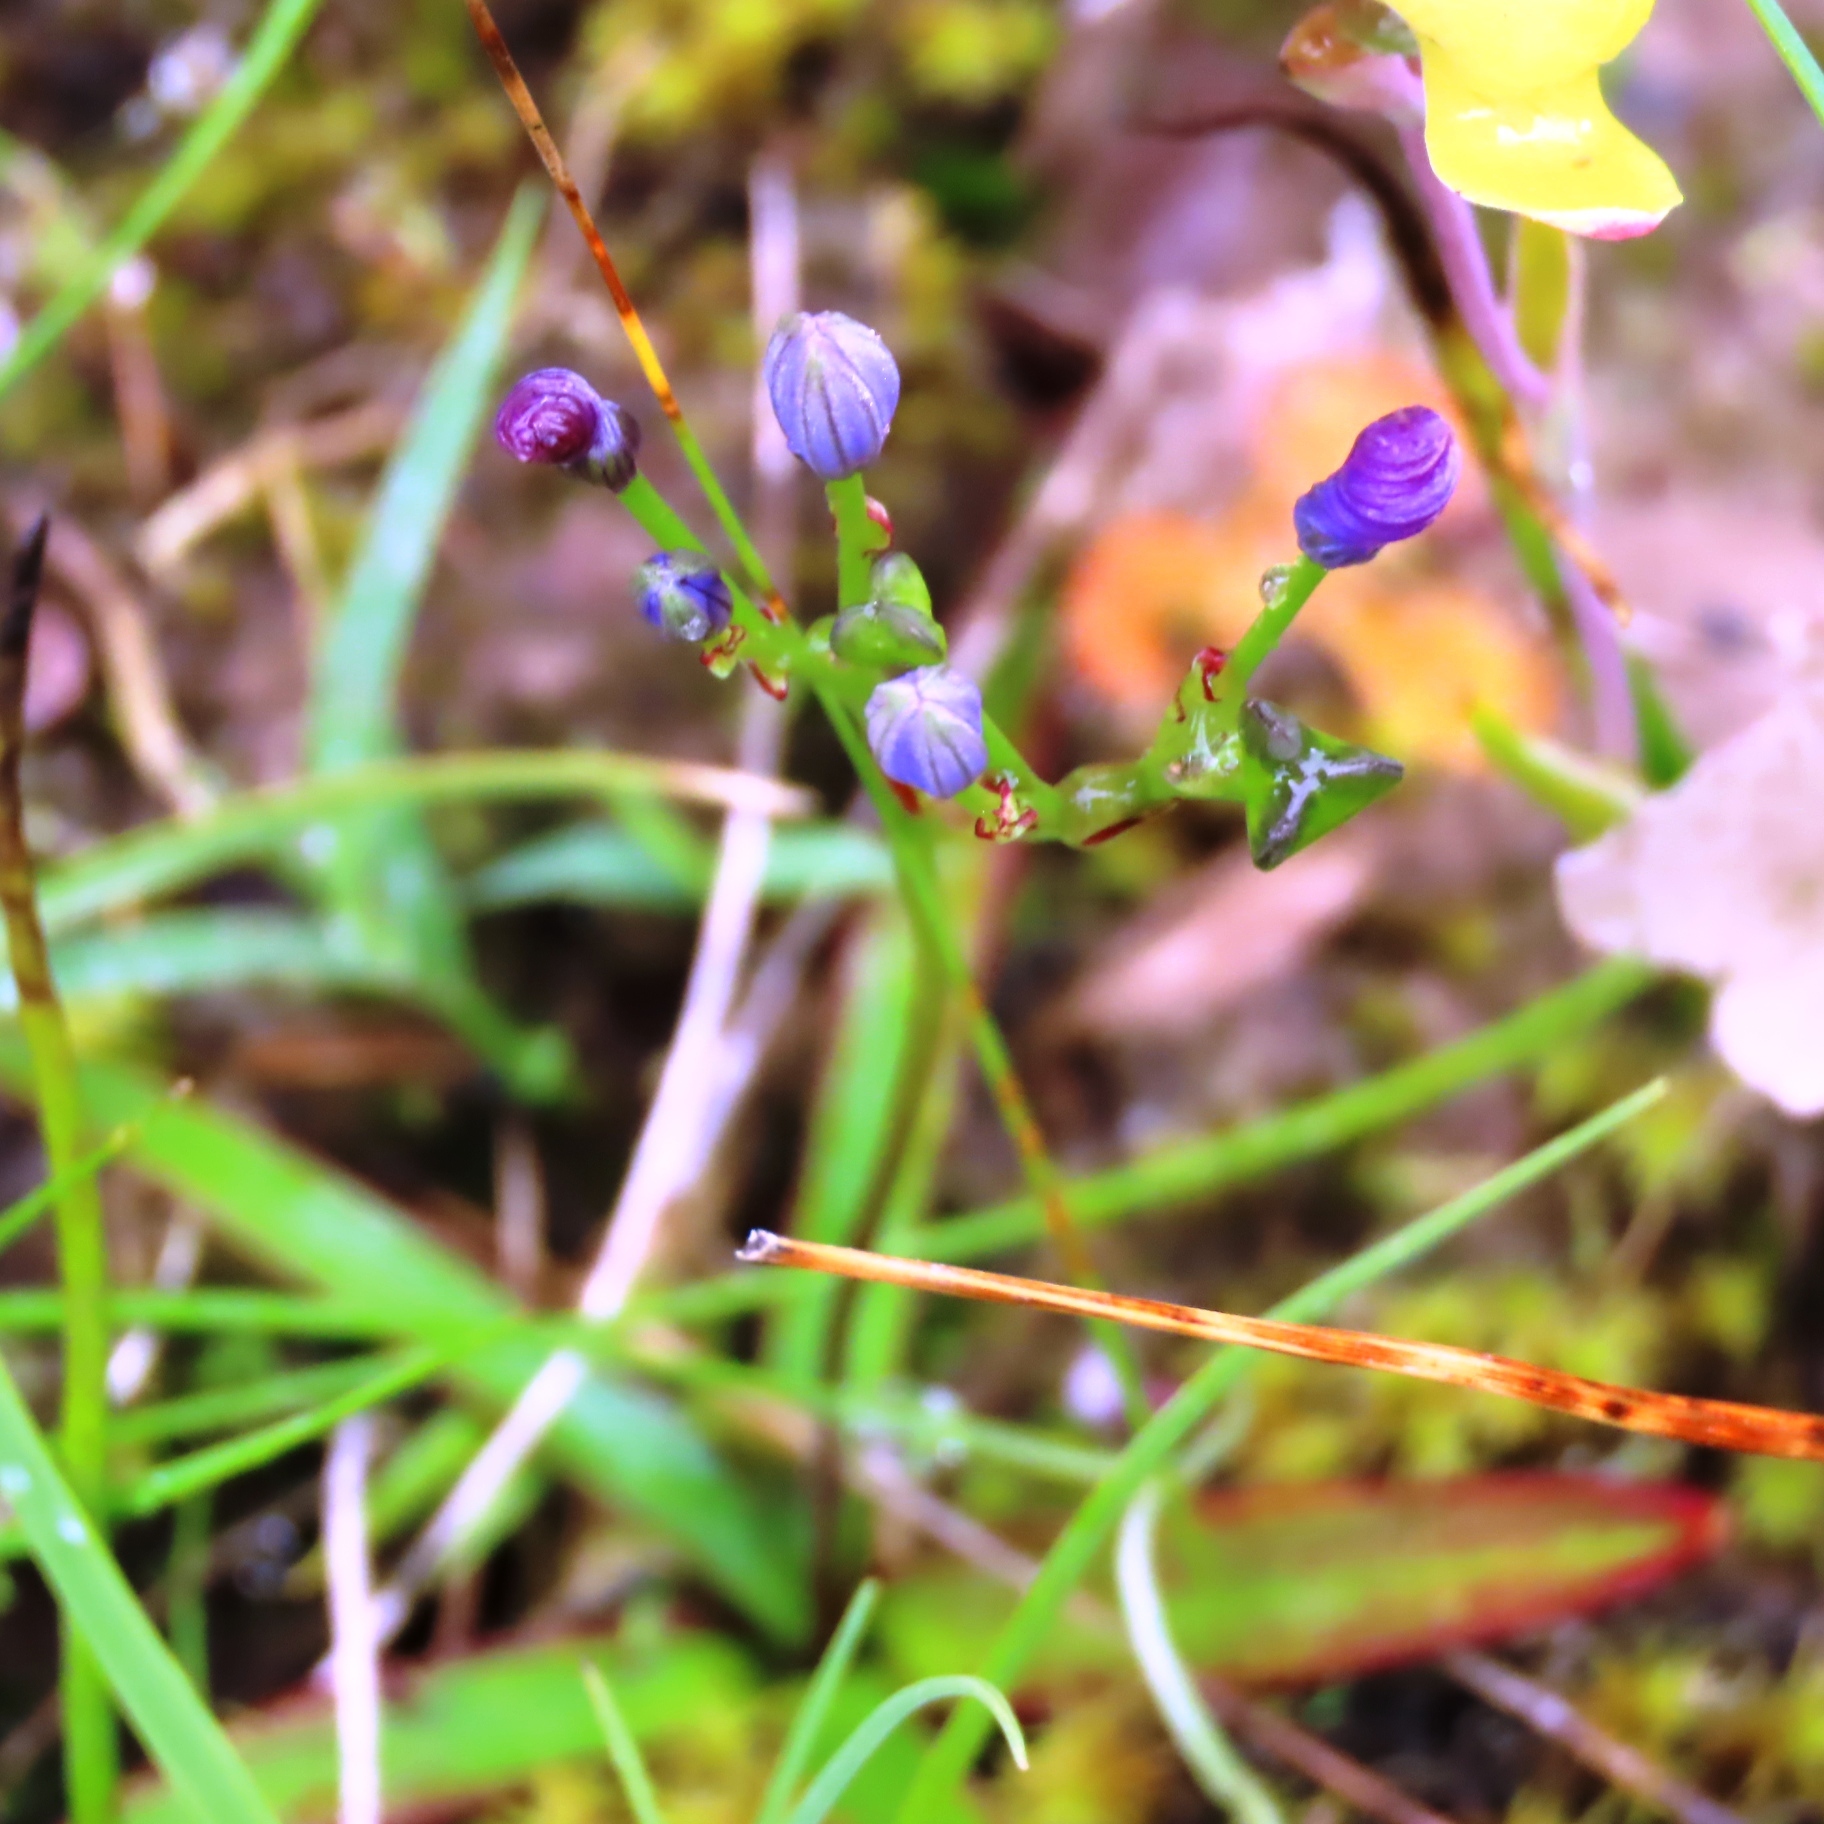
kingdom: Plantae
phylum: Tracheophyta
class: Liliopsida
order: Asparagales
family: Asphodelaceae
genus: Chamaescilla
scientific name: Chamaescilla corymbosa
